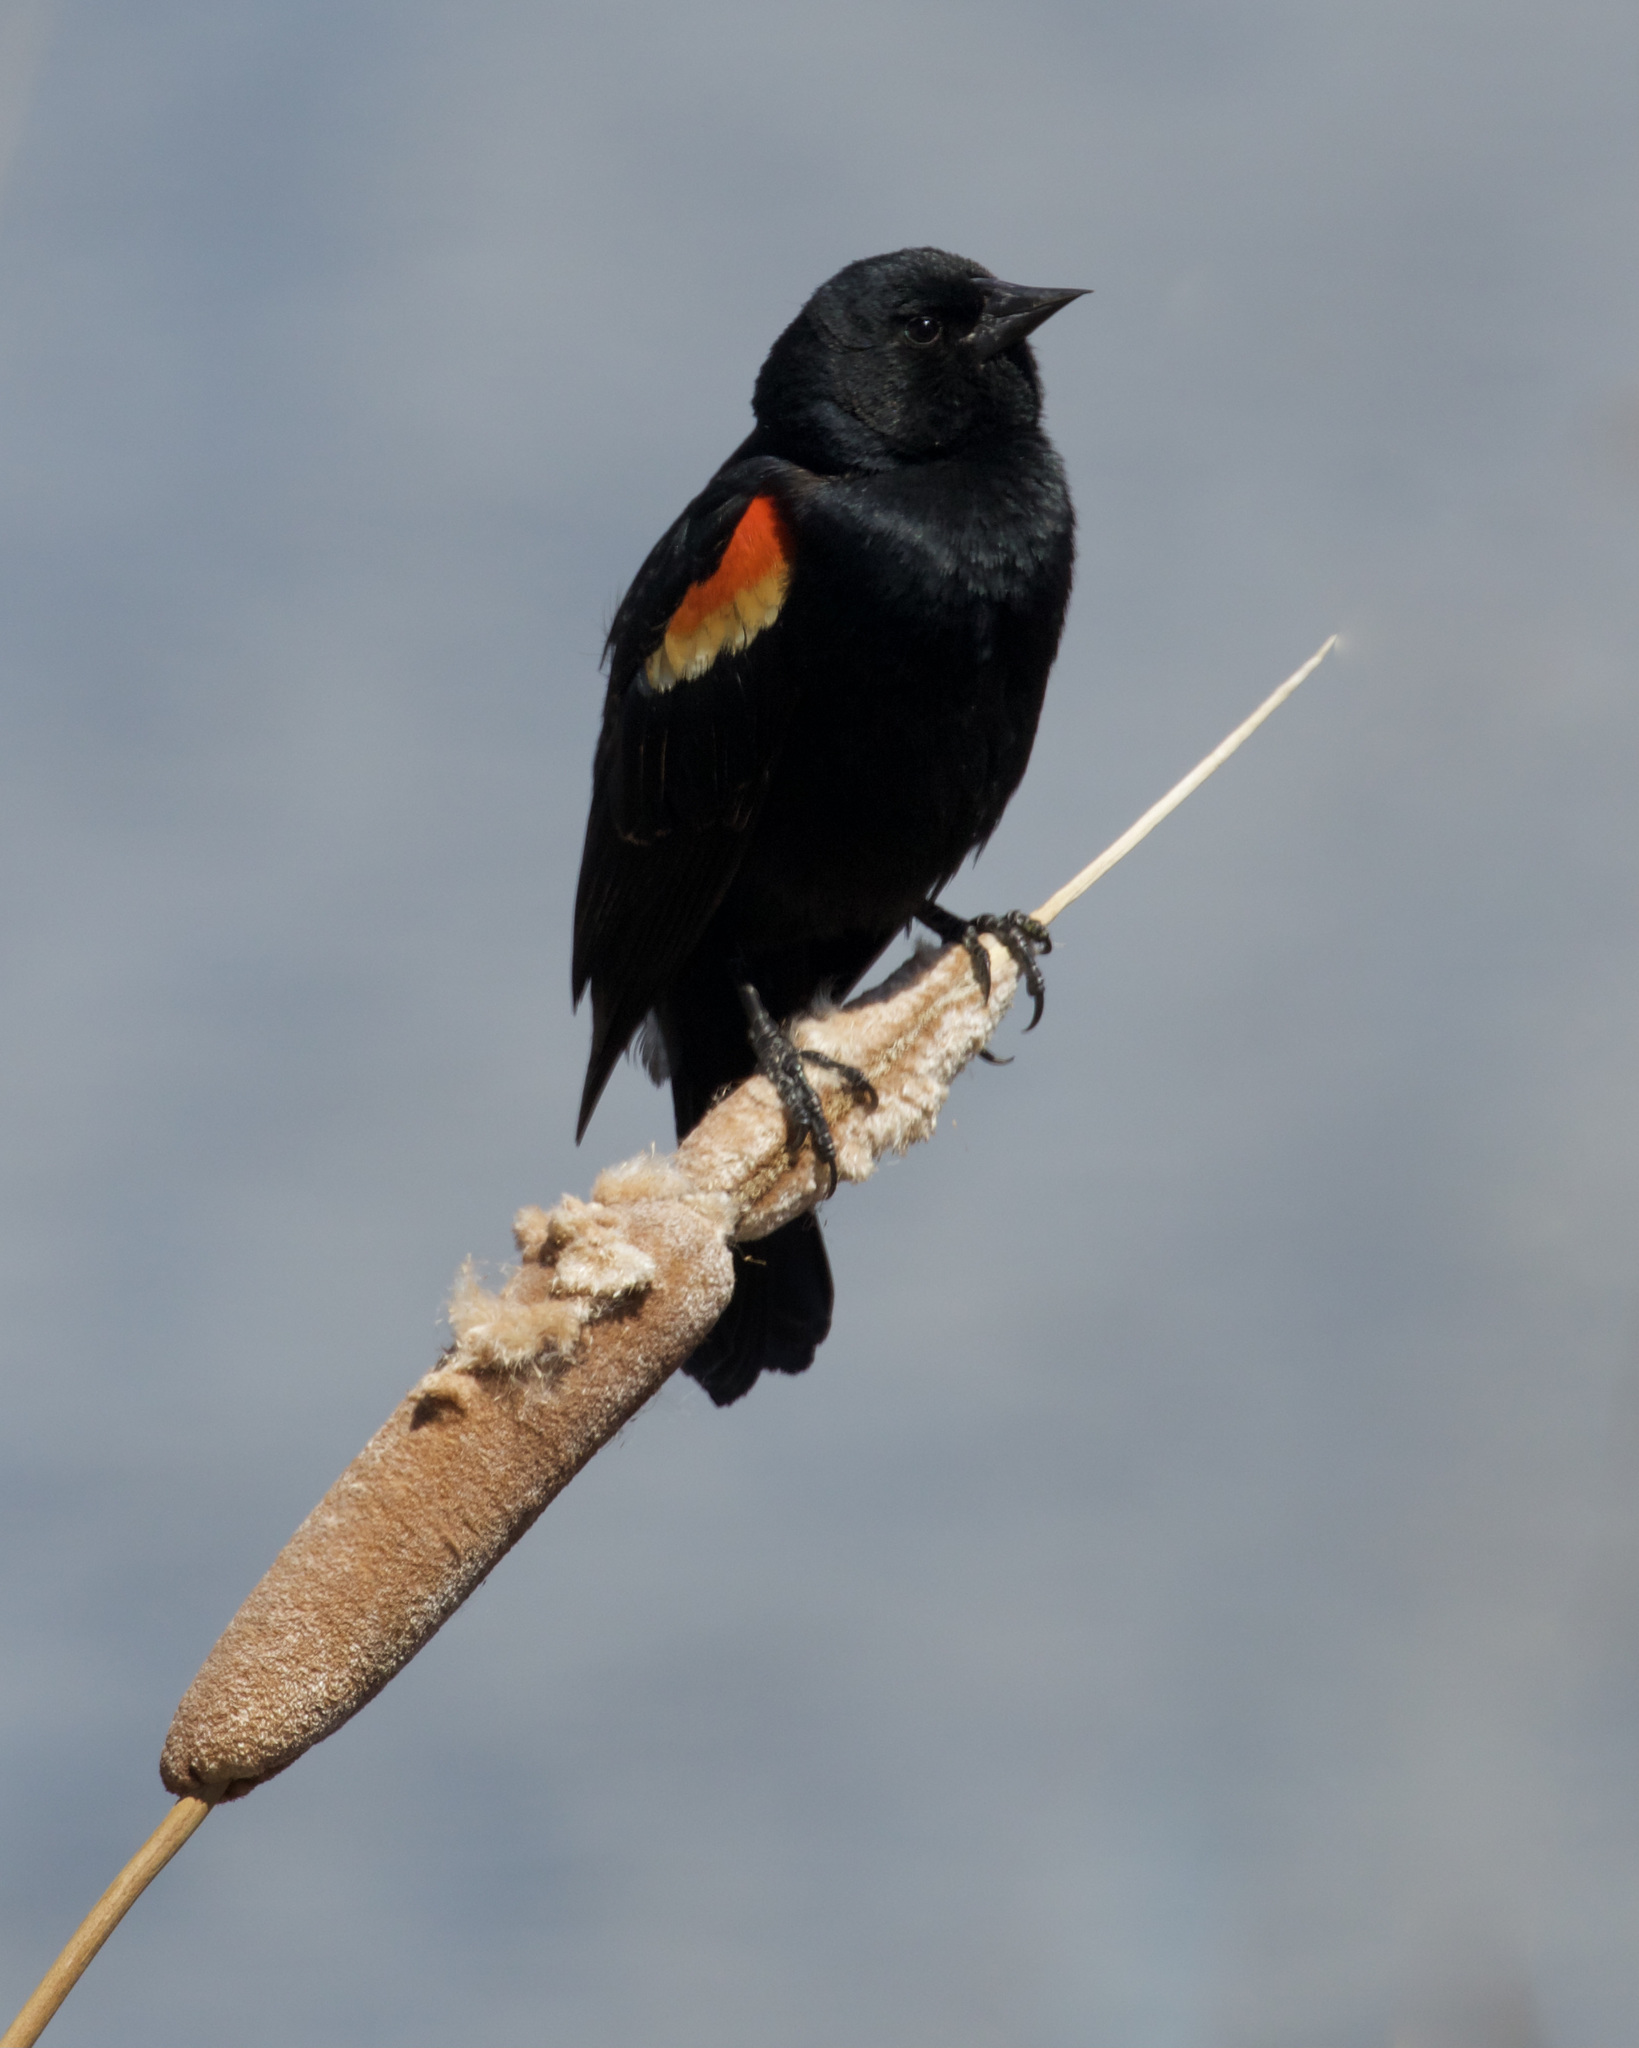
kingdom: Animalia
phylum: Chordata
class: Aves
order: Passeriformes
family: Icteridae
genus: Agelaius
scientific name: Agelaius phoeniceus
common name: Red-winged blackbird
